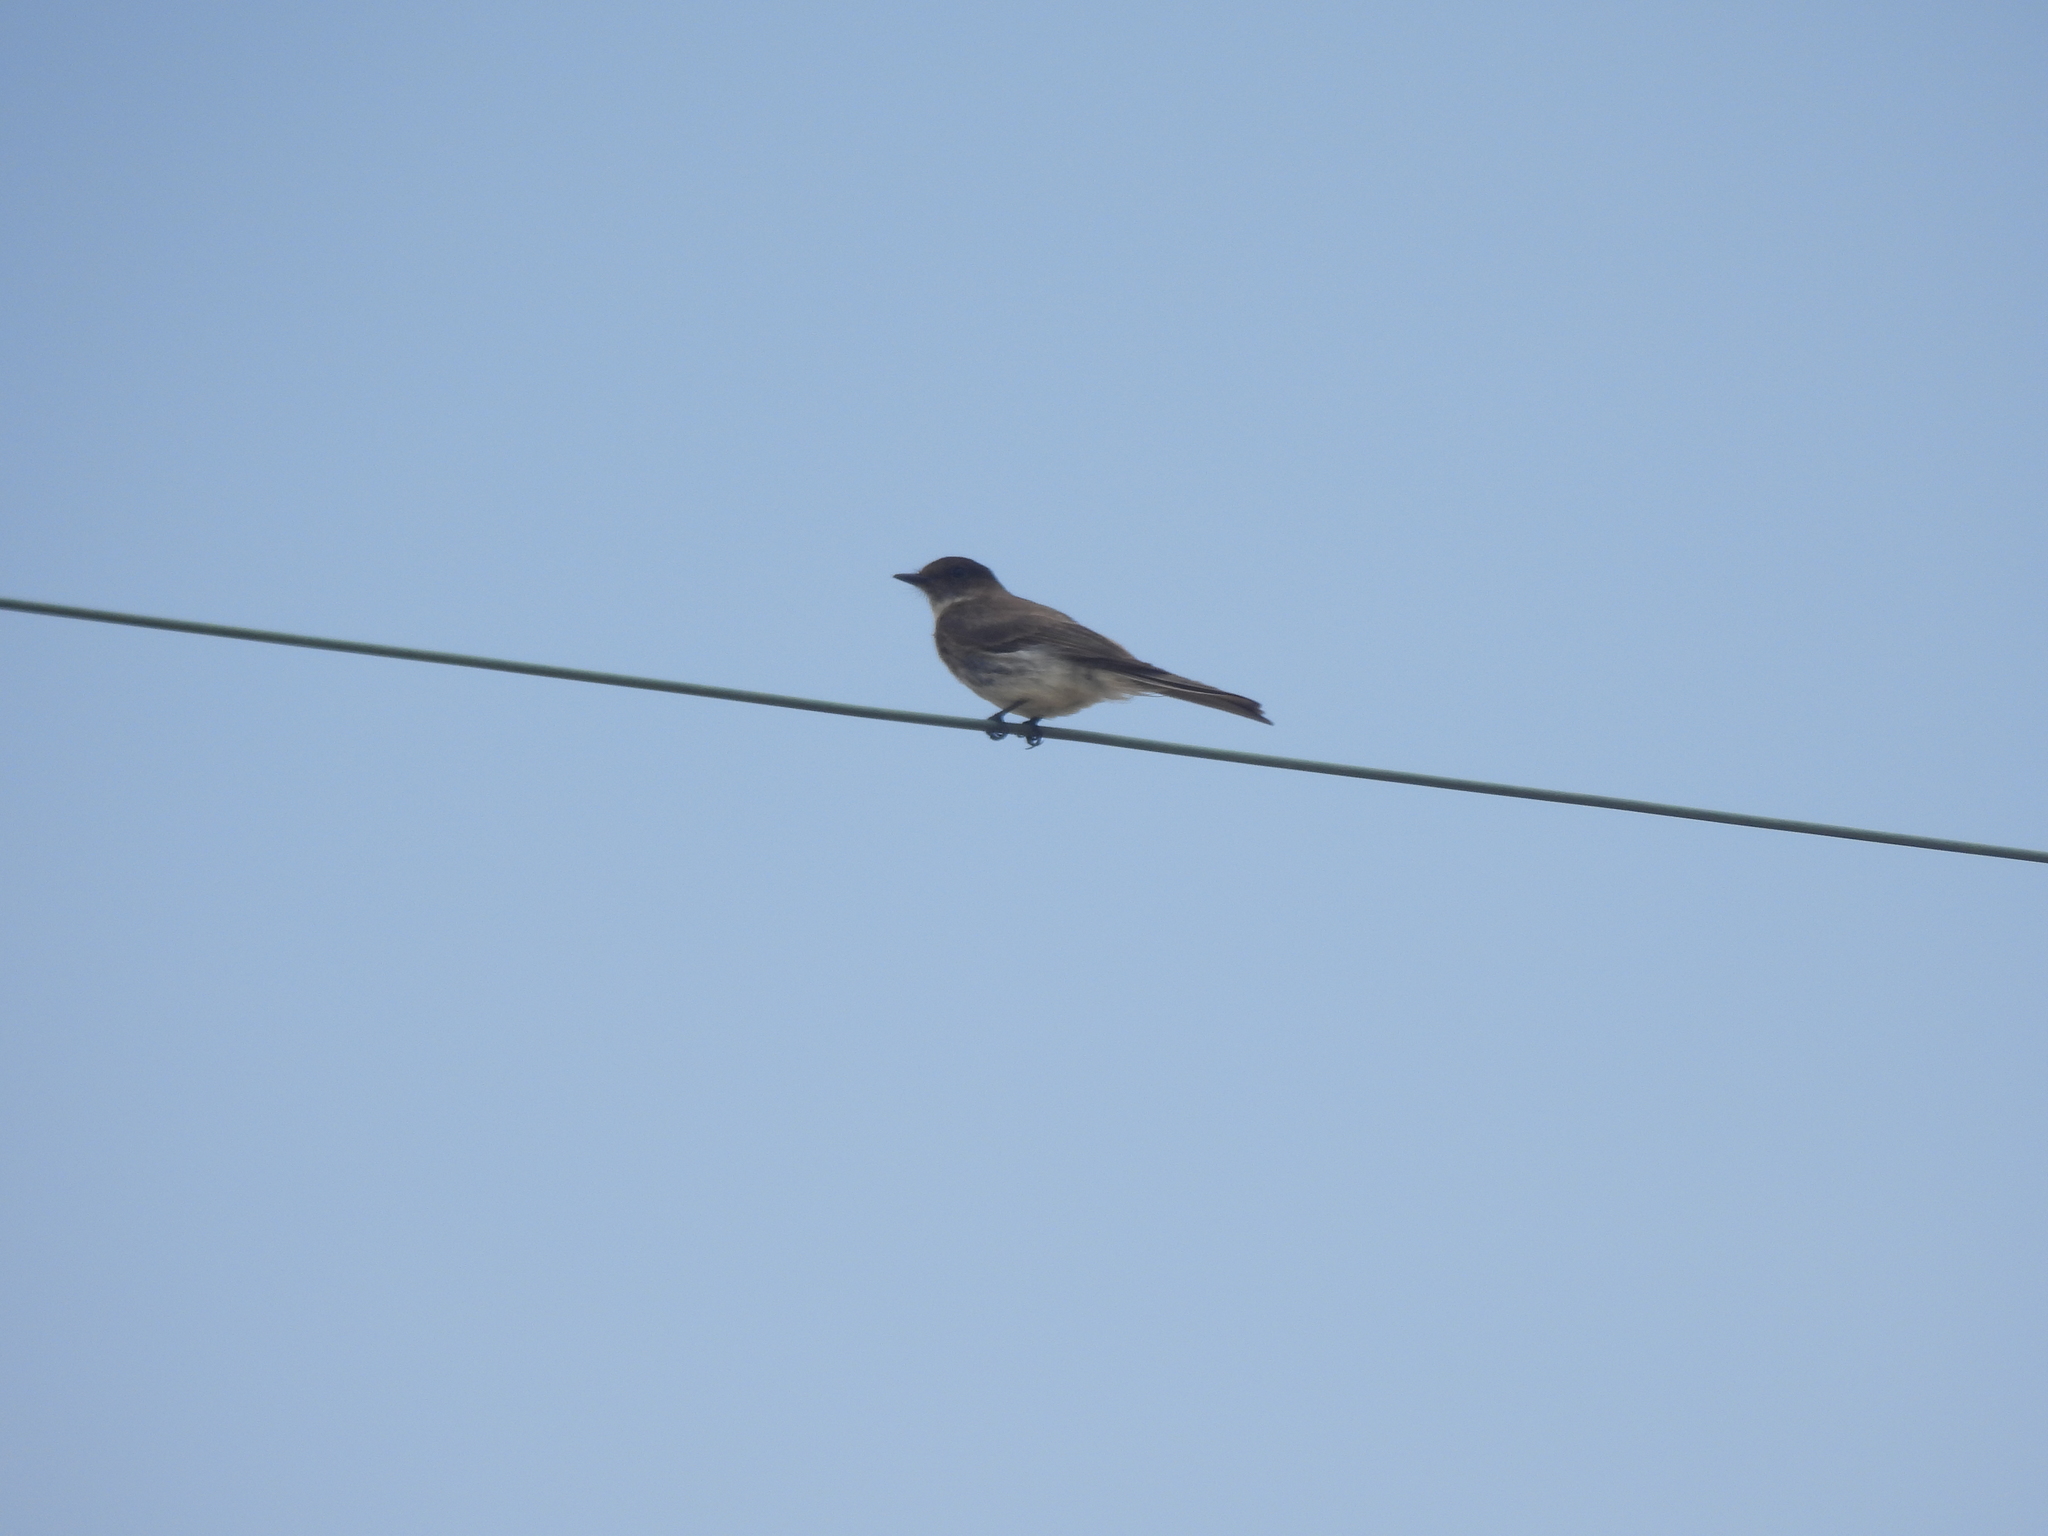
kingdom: Animalia
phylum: Chordata
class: Aves
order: Passeriformes
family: Tyrannidae
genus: Sayornis
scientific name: Sayornis phoebe
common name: Eastern phoebe
